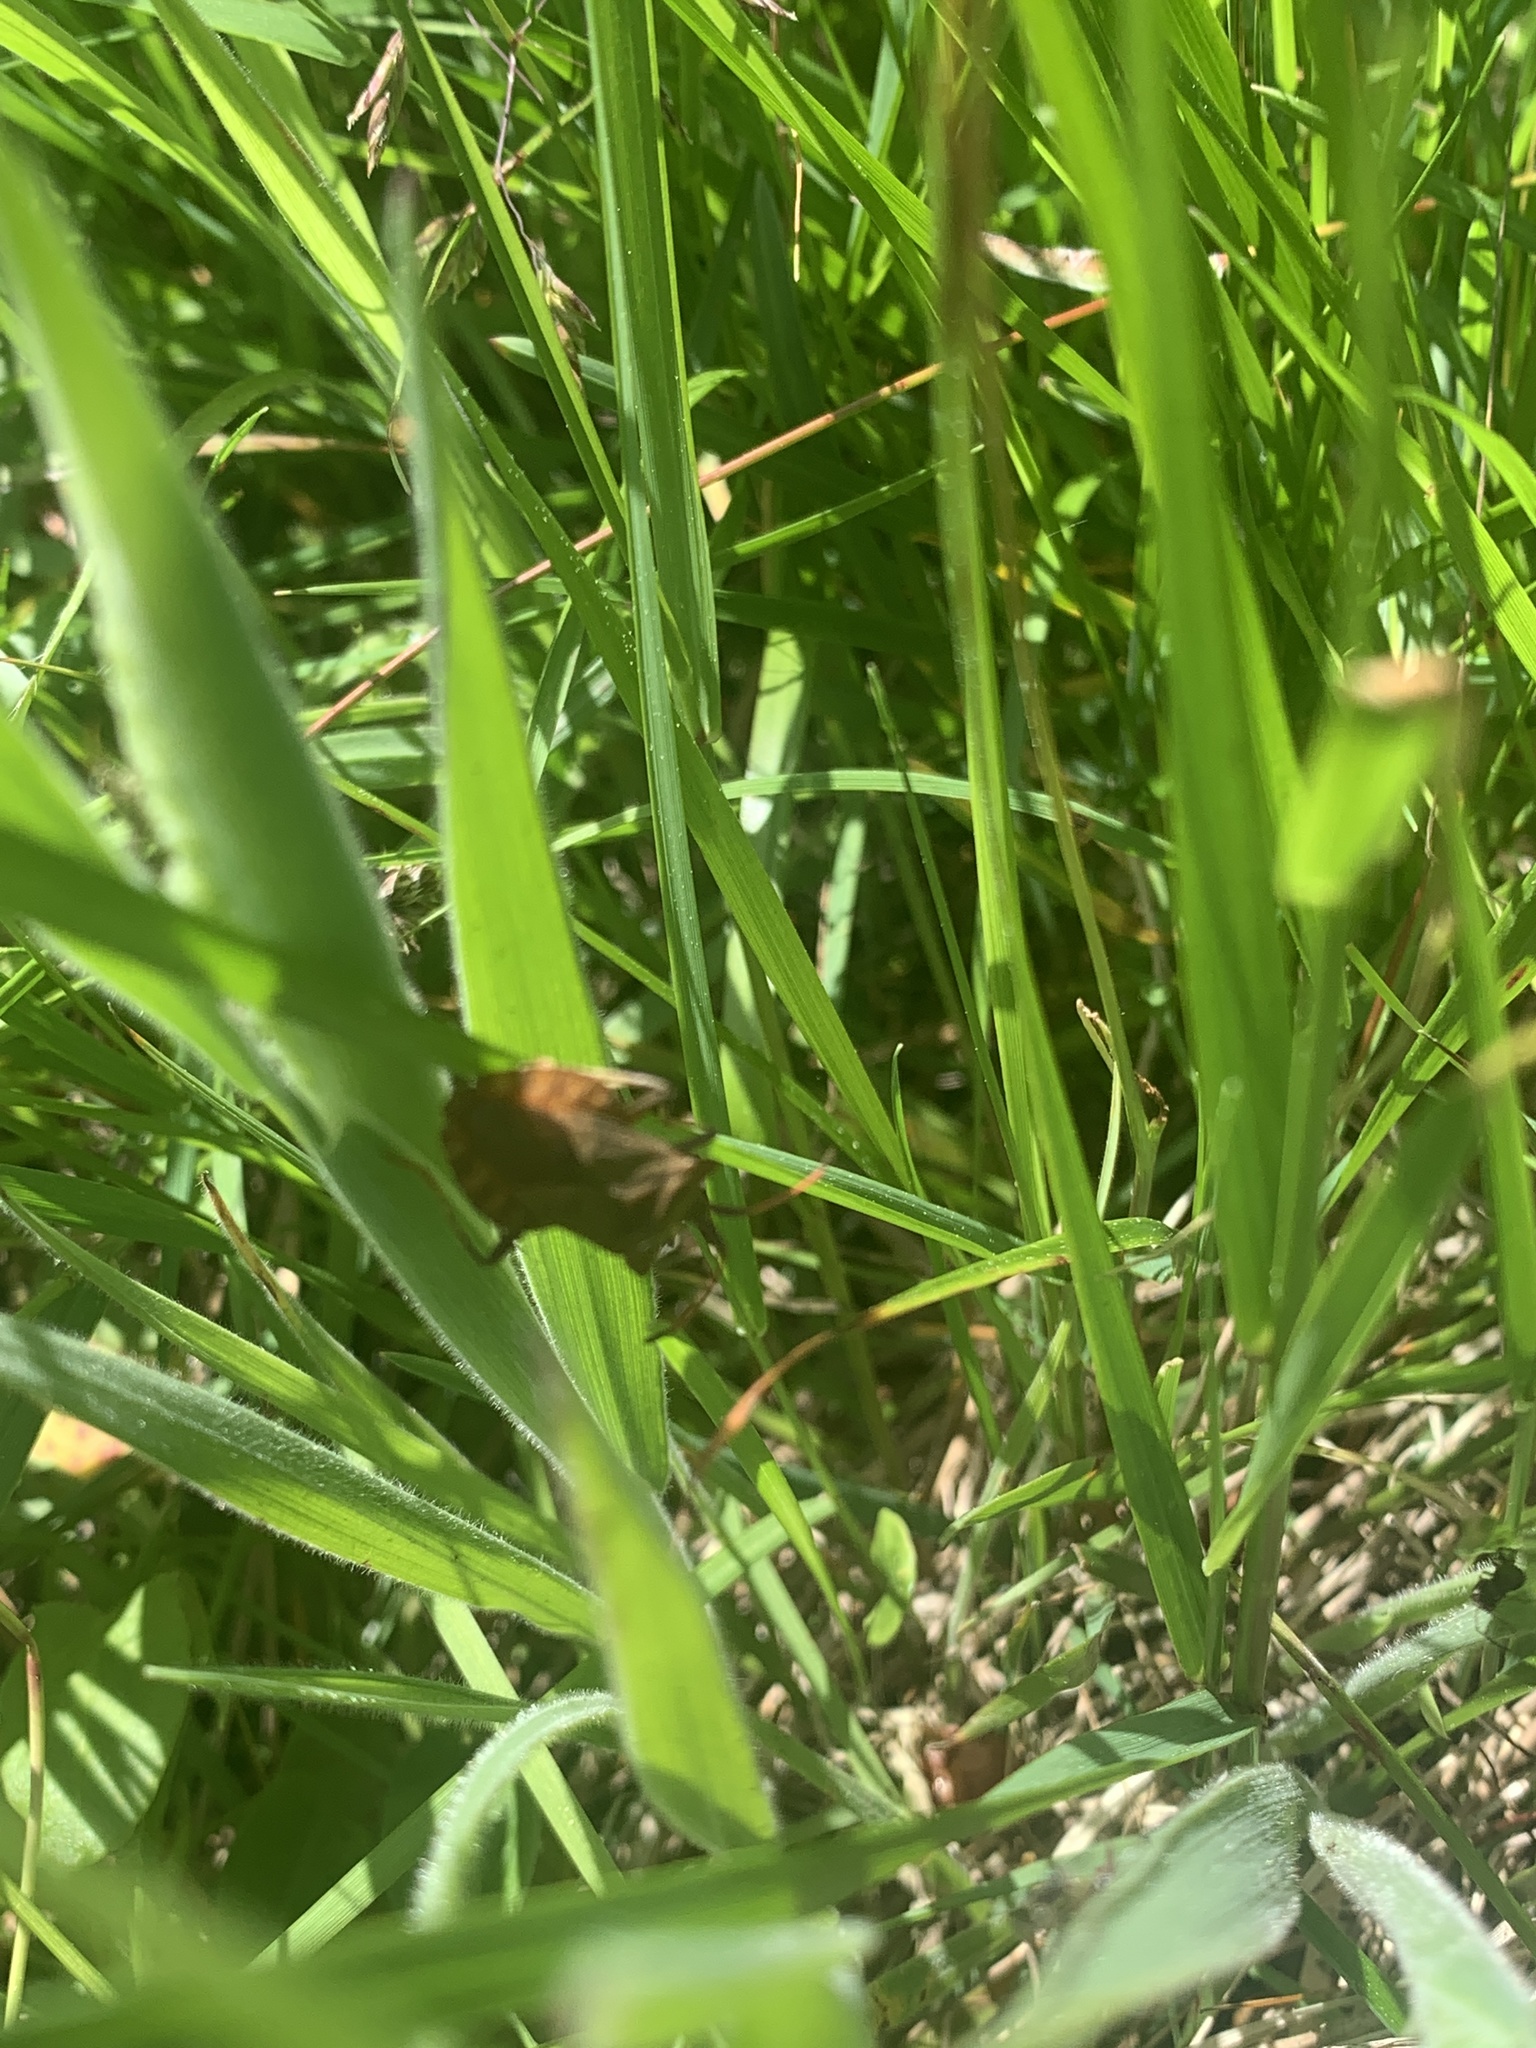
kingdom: Animalia
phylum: Arthropoda
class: Insecta
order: Hemiptera
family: Coreidae
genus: Coreus
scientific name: Coreus marginatus
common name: Dock bug
